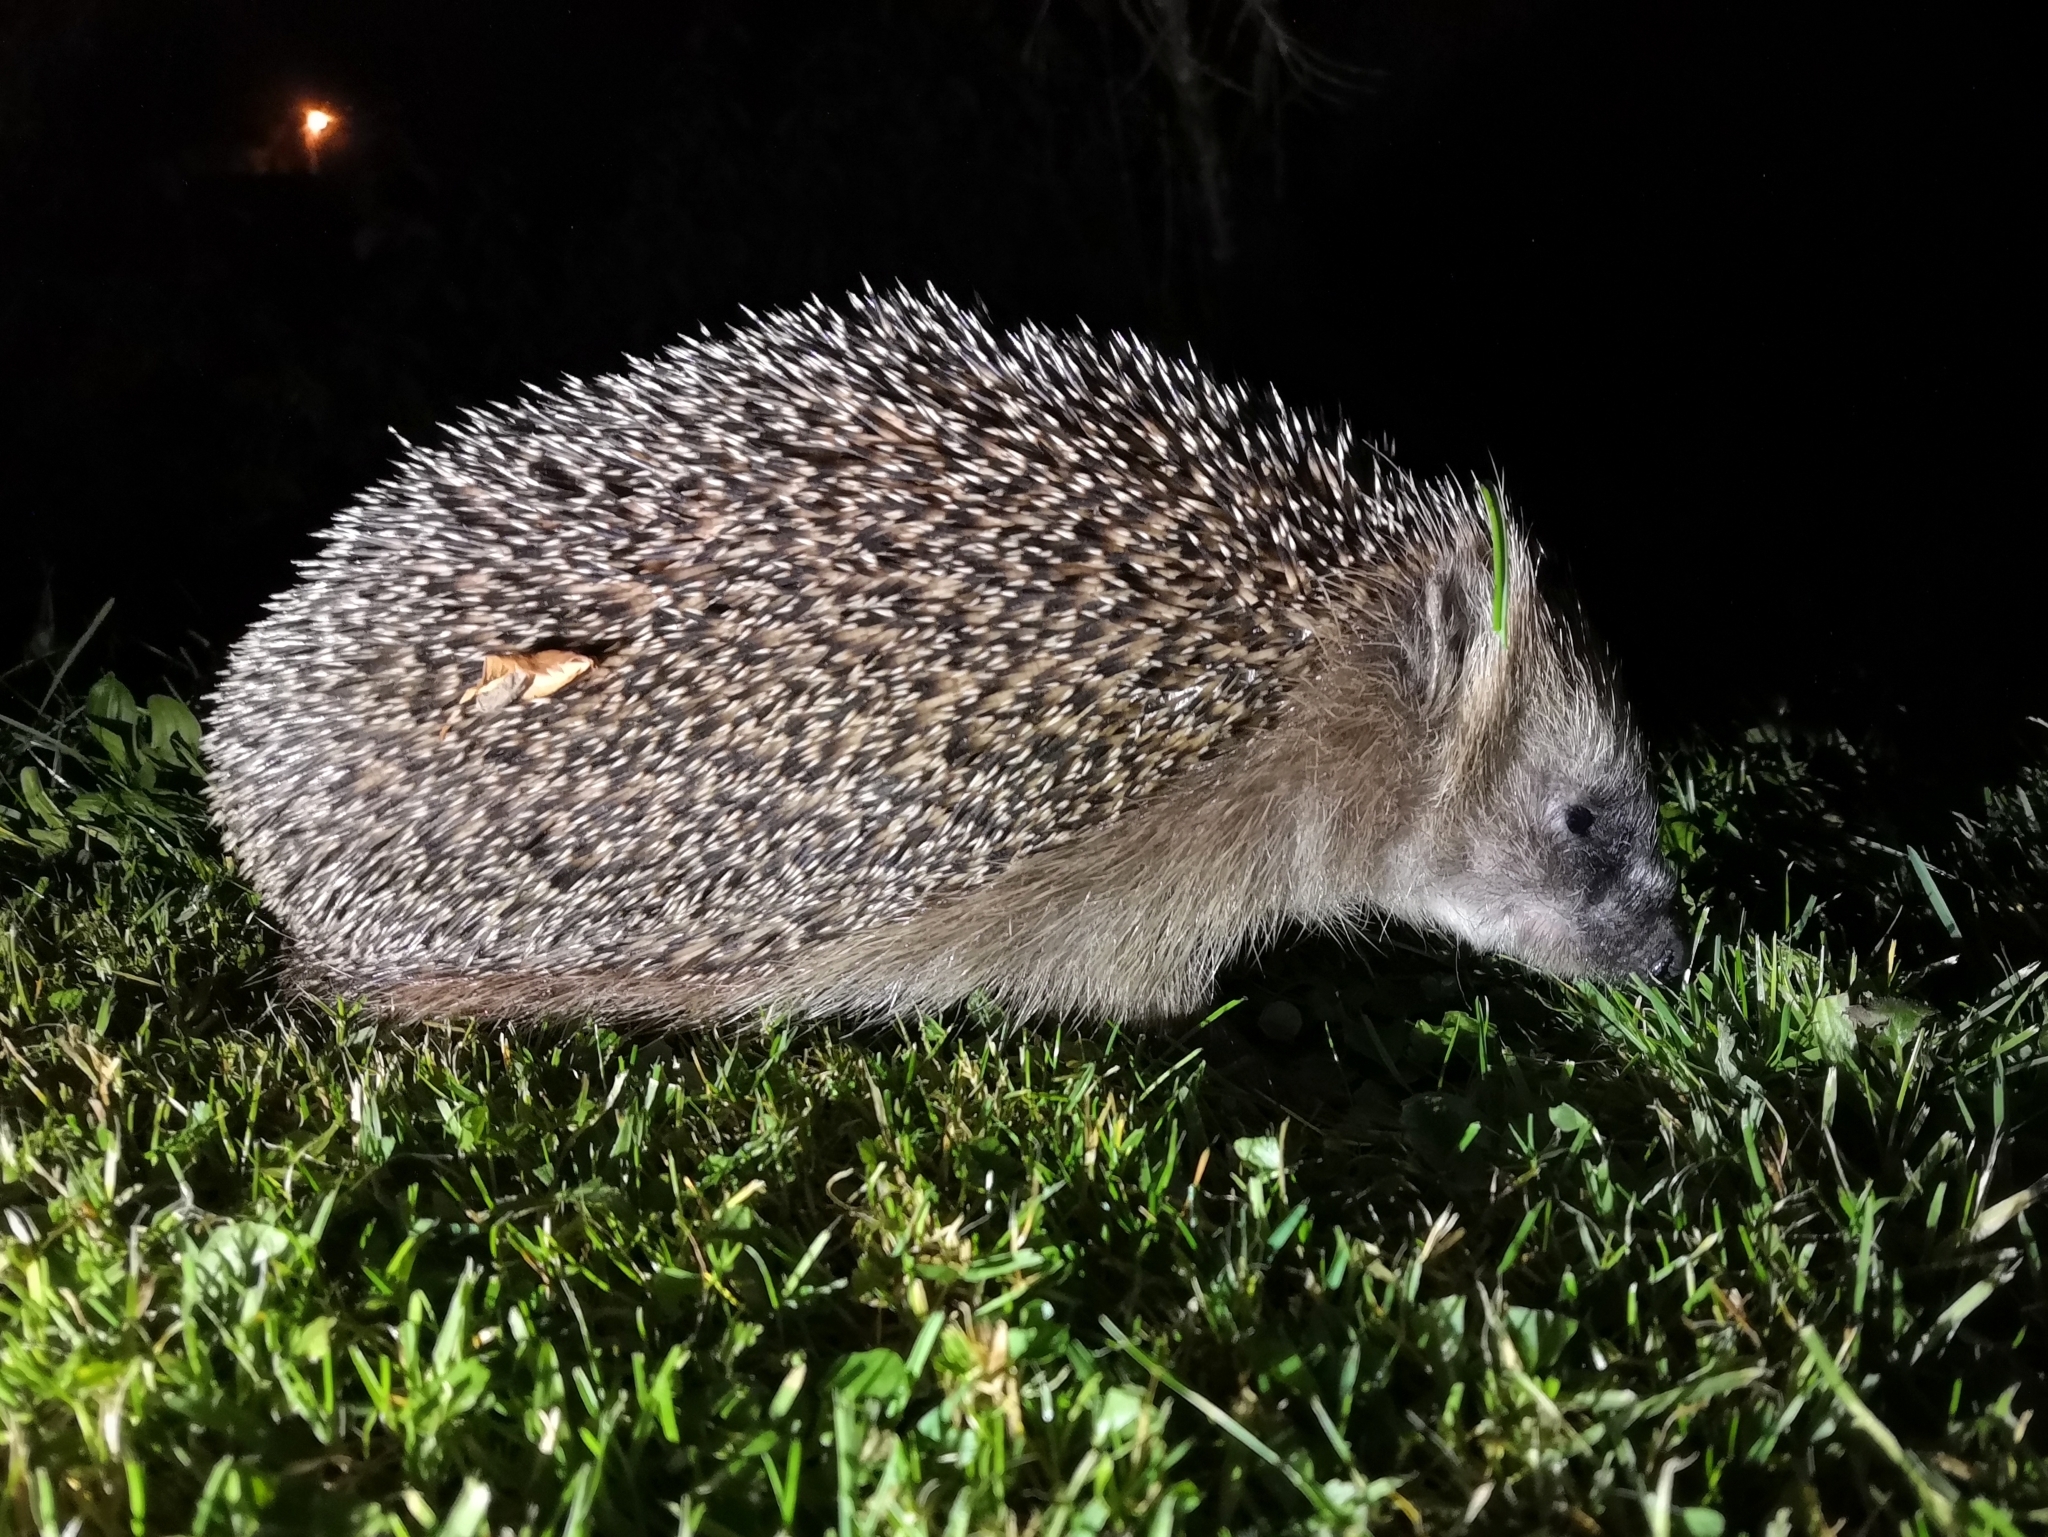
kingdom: Animalia
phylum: Chordata
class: Mammalia
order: Erinaceomorpha
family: Erinaceidae
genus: Erinaceus
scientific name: Erinaceus europaeus
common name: West european hedgehog
